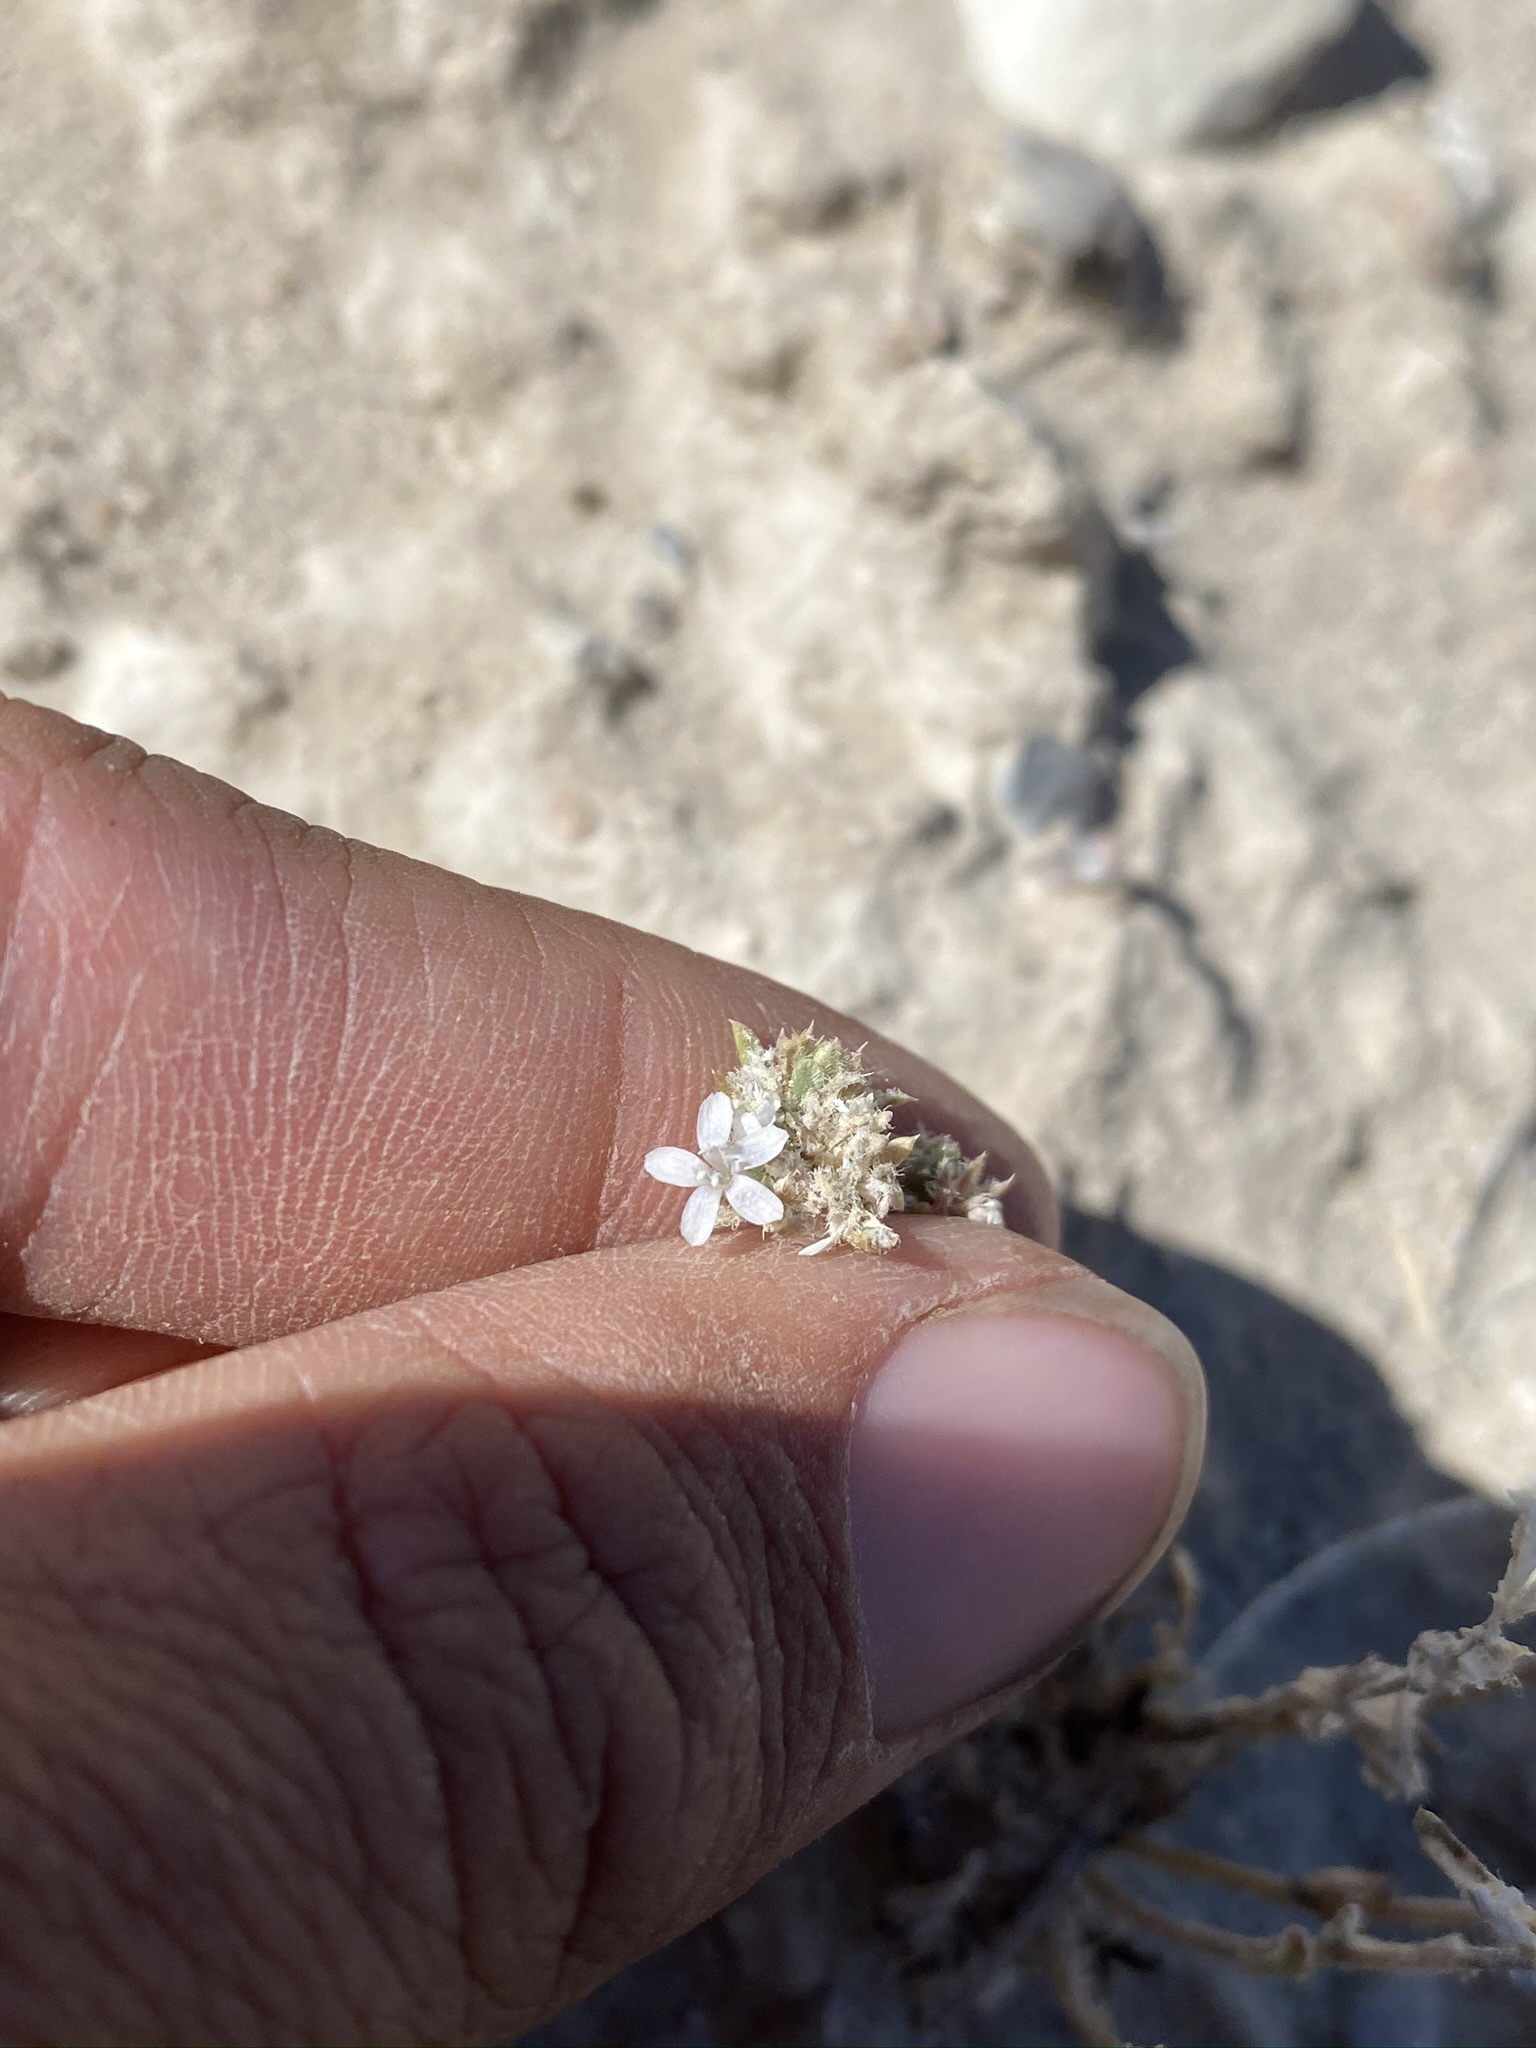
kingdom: Plantae
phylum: Tracheophyta
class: Magnoliopsida
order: Ericales
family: Polemoniaceae
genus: Ipomopsis
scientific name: Ipomopsis congesta
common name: Ball-head gilia
